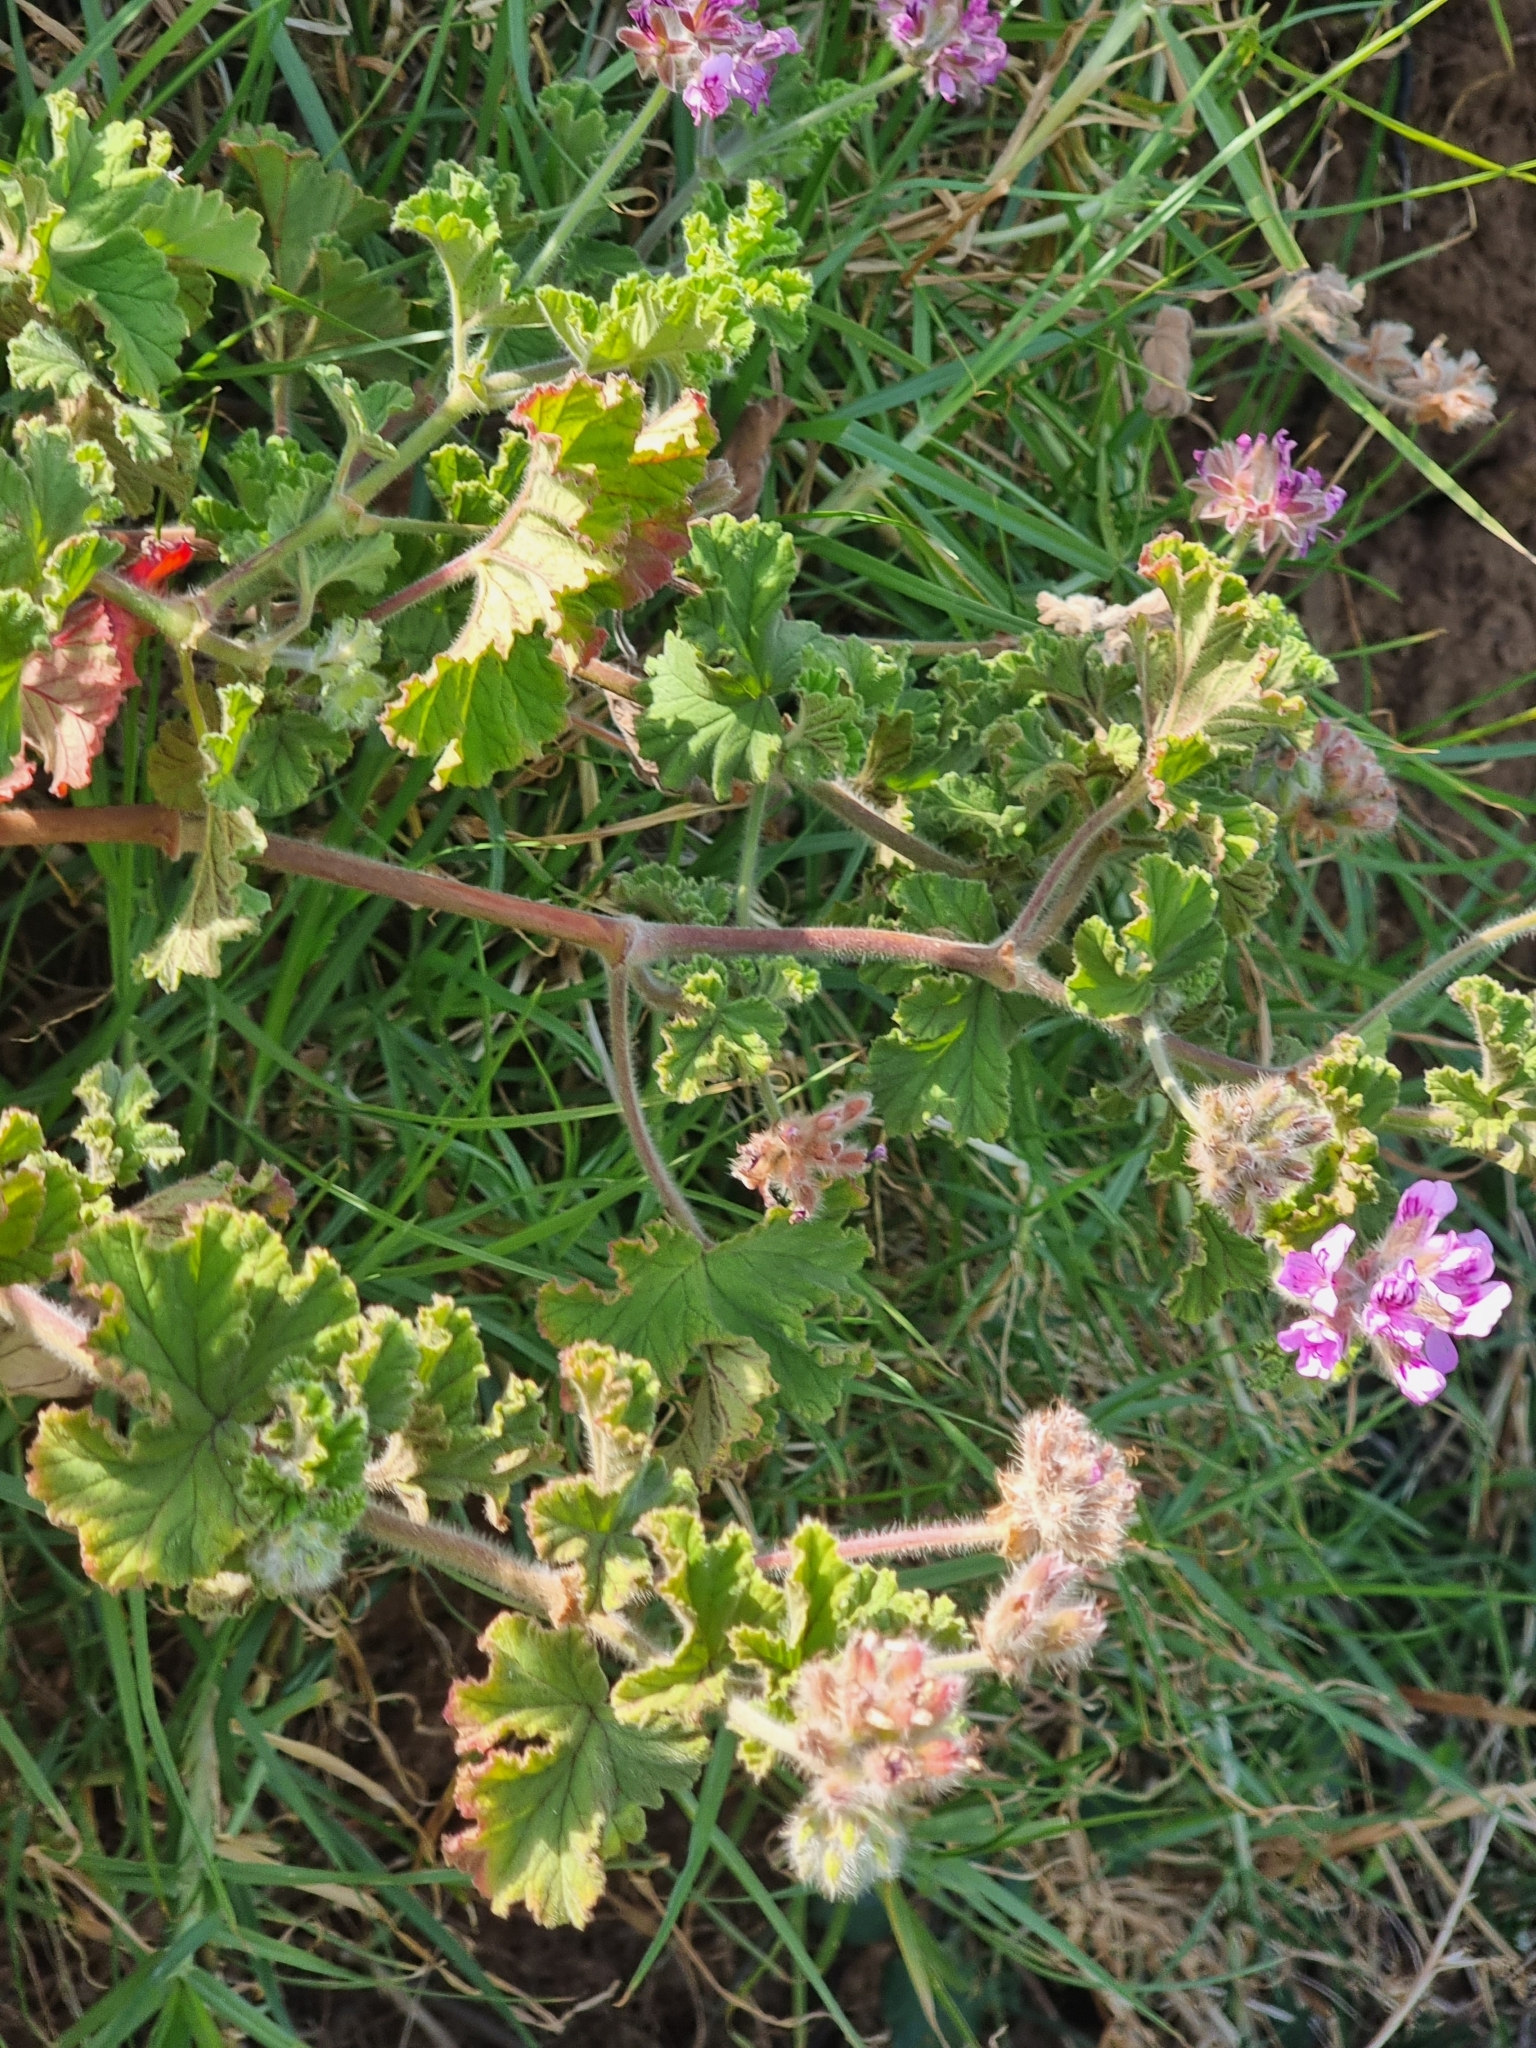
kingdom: Plantae
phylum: Tracheophyta
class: Magnoliopsida
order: Geraniales
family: Geraniaceae
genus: Pelargonium
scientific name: Pelargonium capitatum
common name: Rose scented geranium
